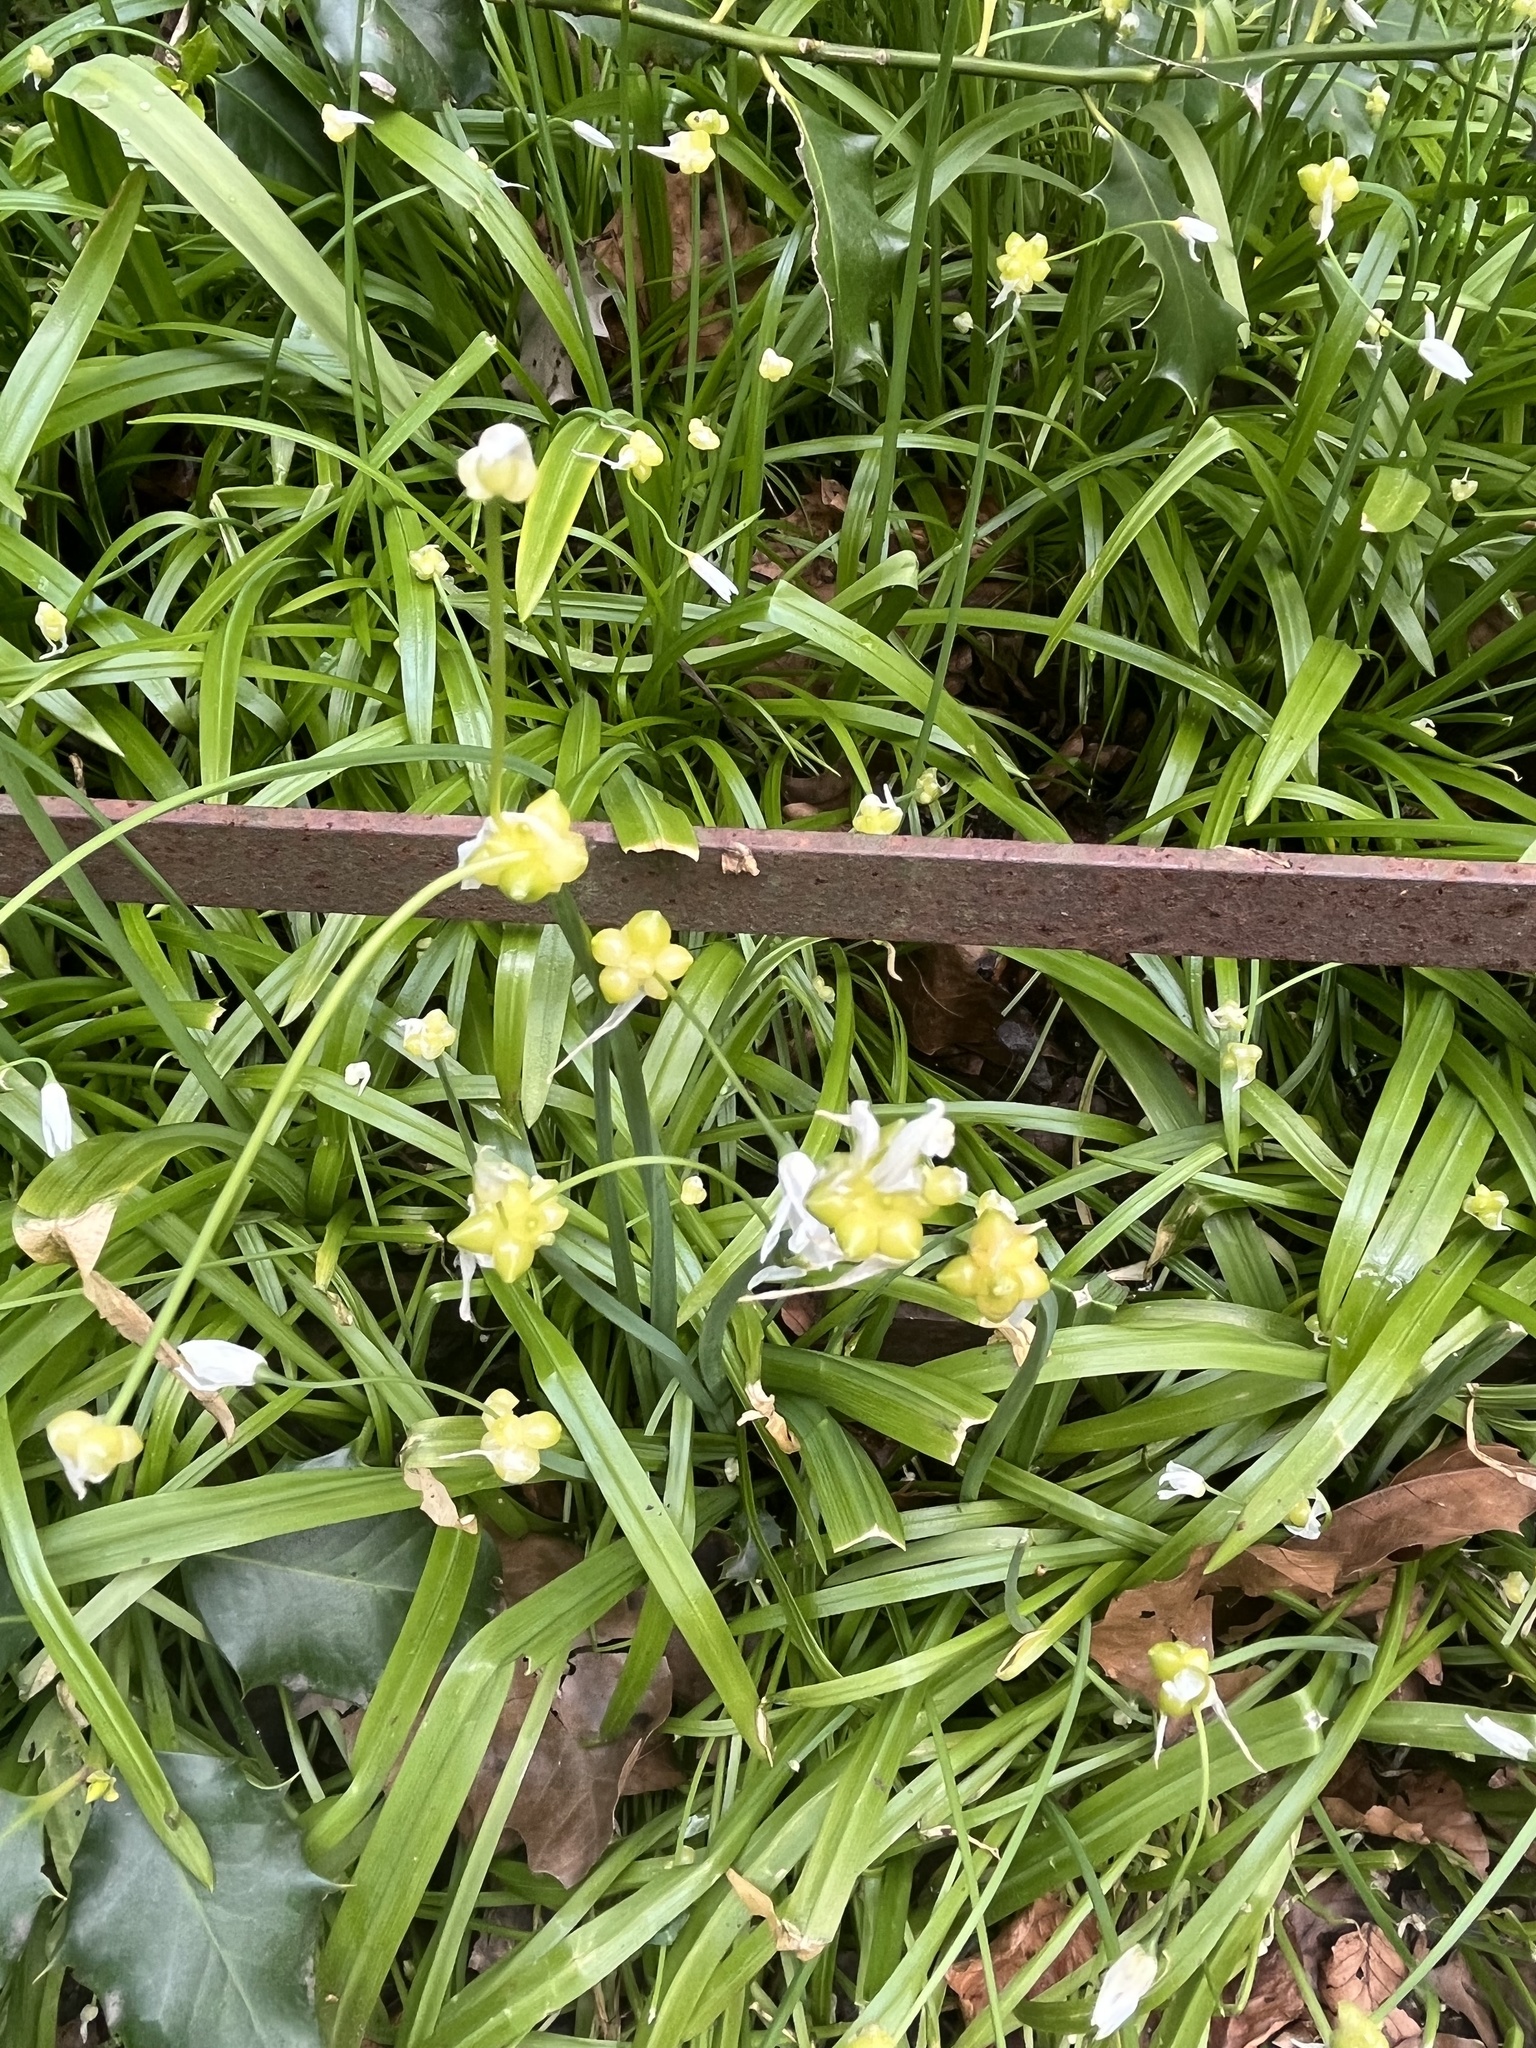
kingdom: Plantae
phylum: Tracheophyta
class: Liliopsida
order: Asparagales
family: Amaryllidaceae
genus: Allium
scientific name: Allium paradoxum
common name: Few-flowered garlic
